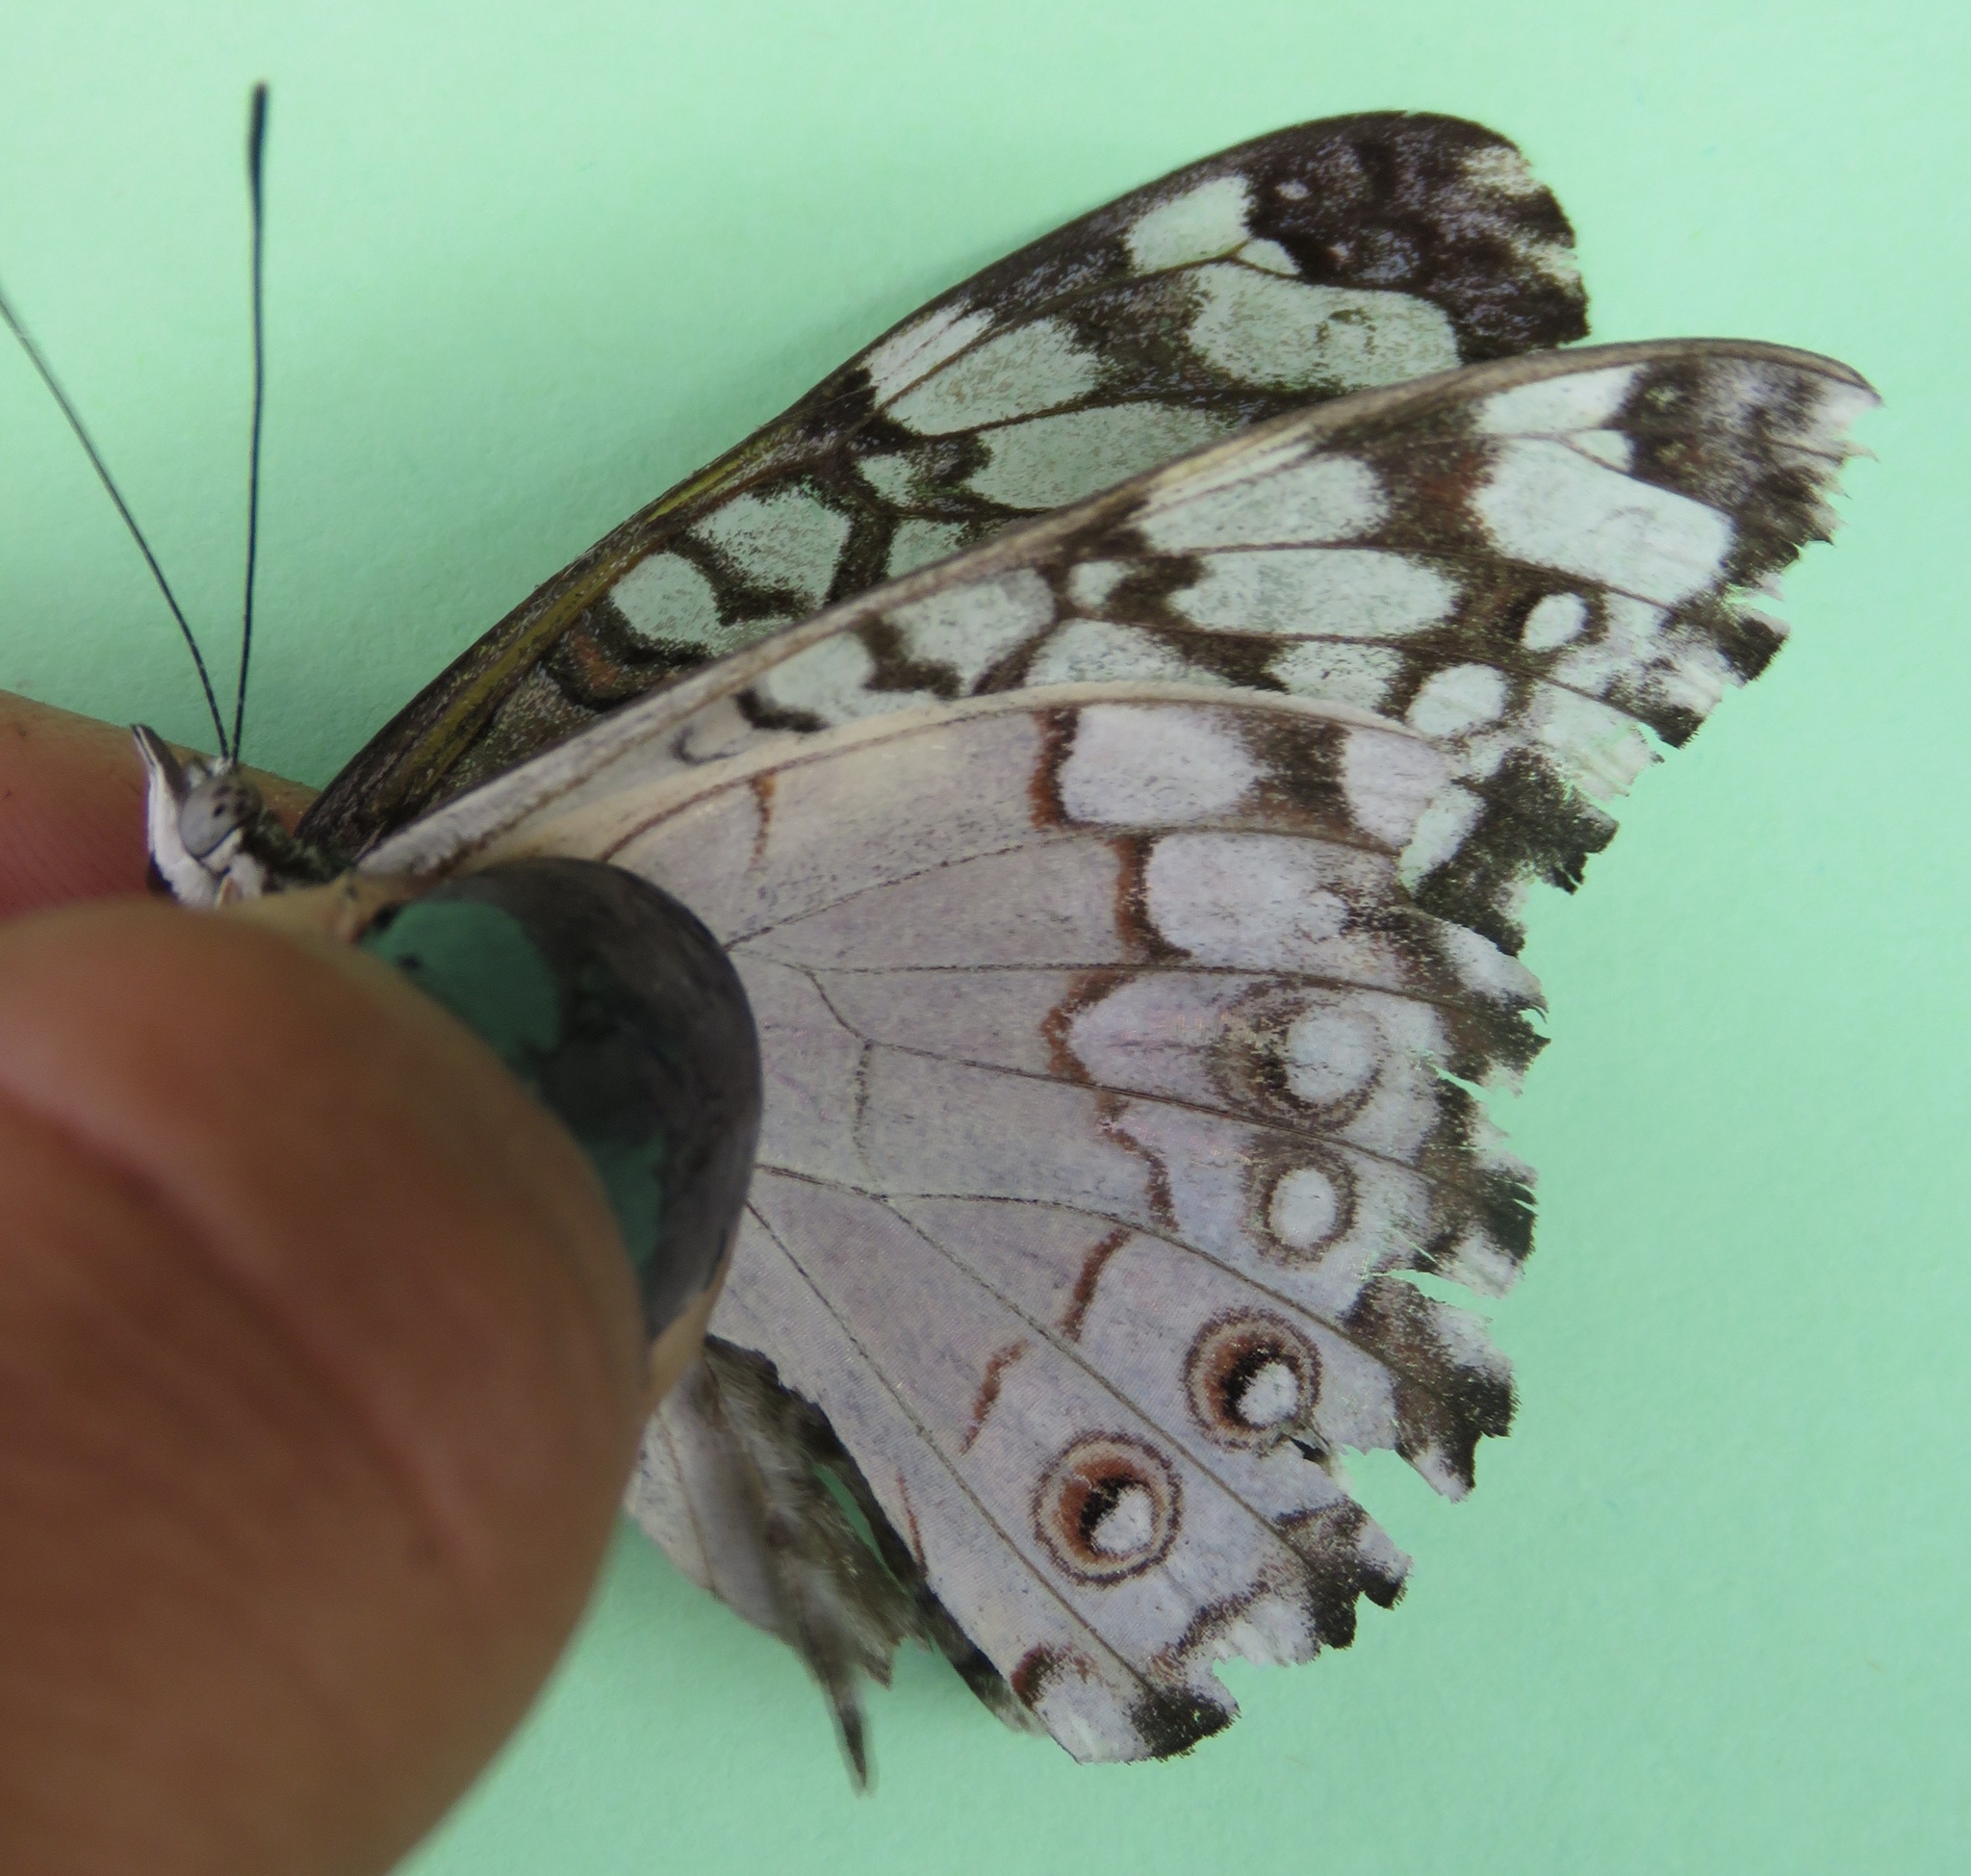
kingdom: Animalia
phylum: Arthropoda
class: Insecta
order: Lepidoptera
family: Nymphalidae
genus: Hamadryas
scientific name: Hamadryas februa
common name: Gray cracker
